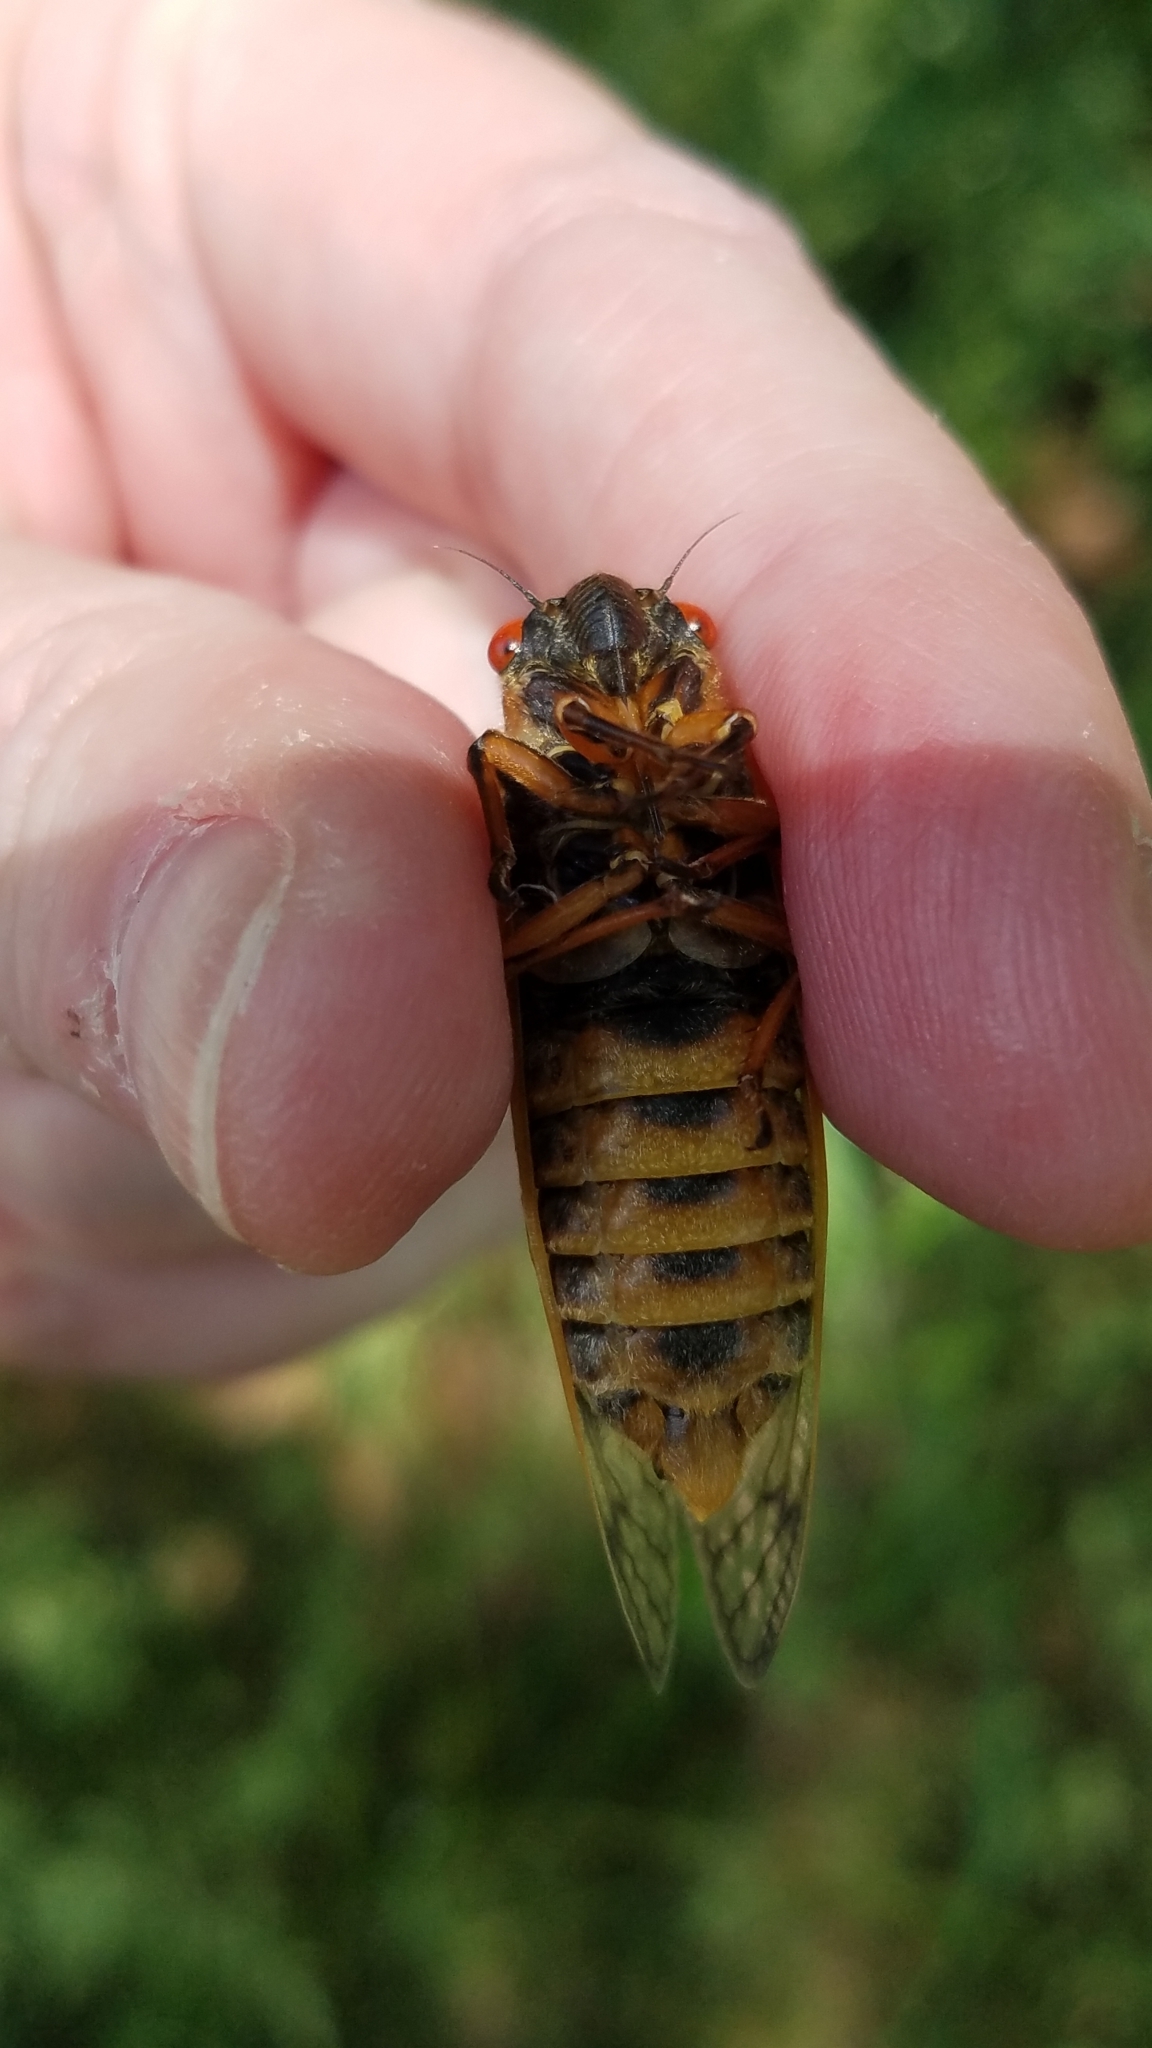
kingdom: Animalia
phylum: Arthropoda
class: Insecta
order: Hemiptera
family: Cicadidae
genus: Magicicada
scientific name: Magicicada septendecim
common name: Periodical cicada
